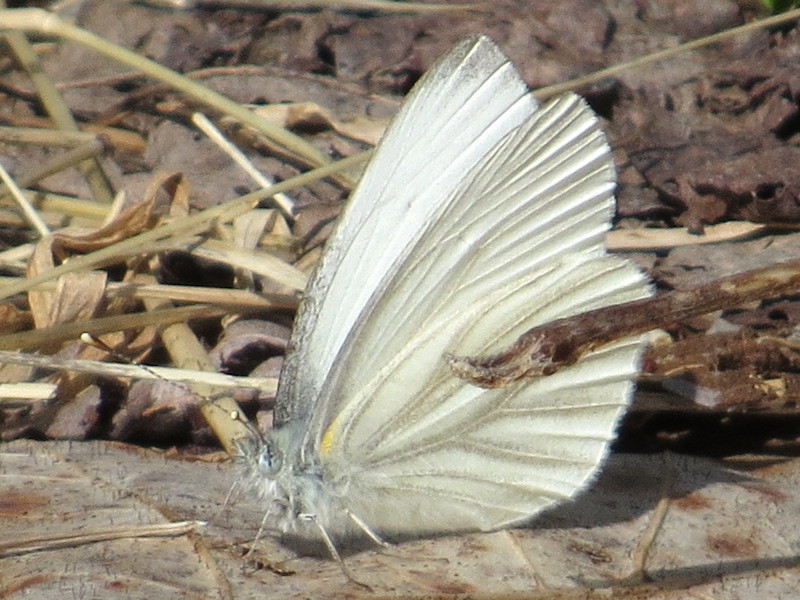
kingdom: Animalia
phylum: Arthropoda
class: Insecta
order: Lepidoptera
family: Pieridae
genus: Pieris
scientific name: Pieris virginiensis
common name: West virginia white
